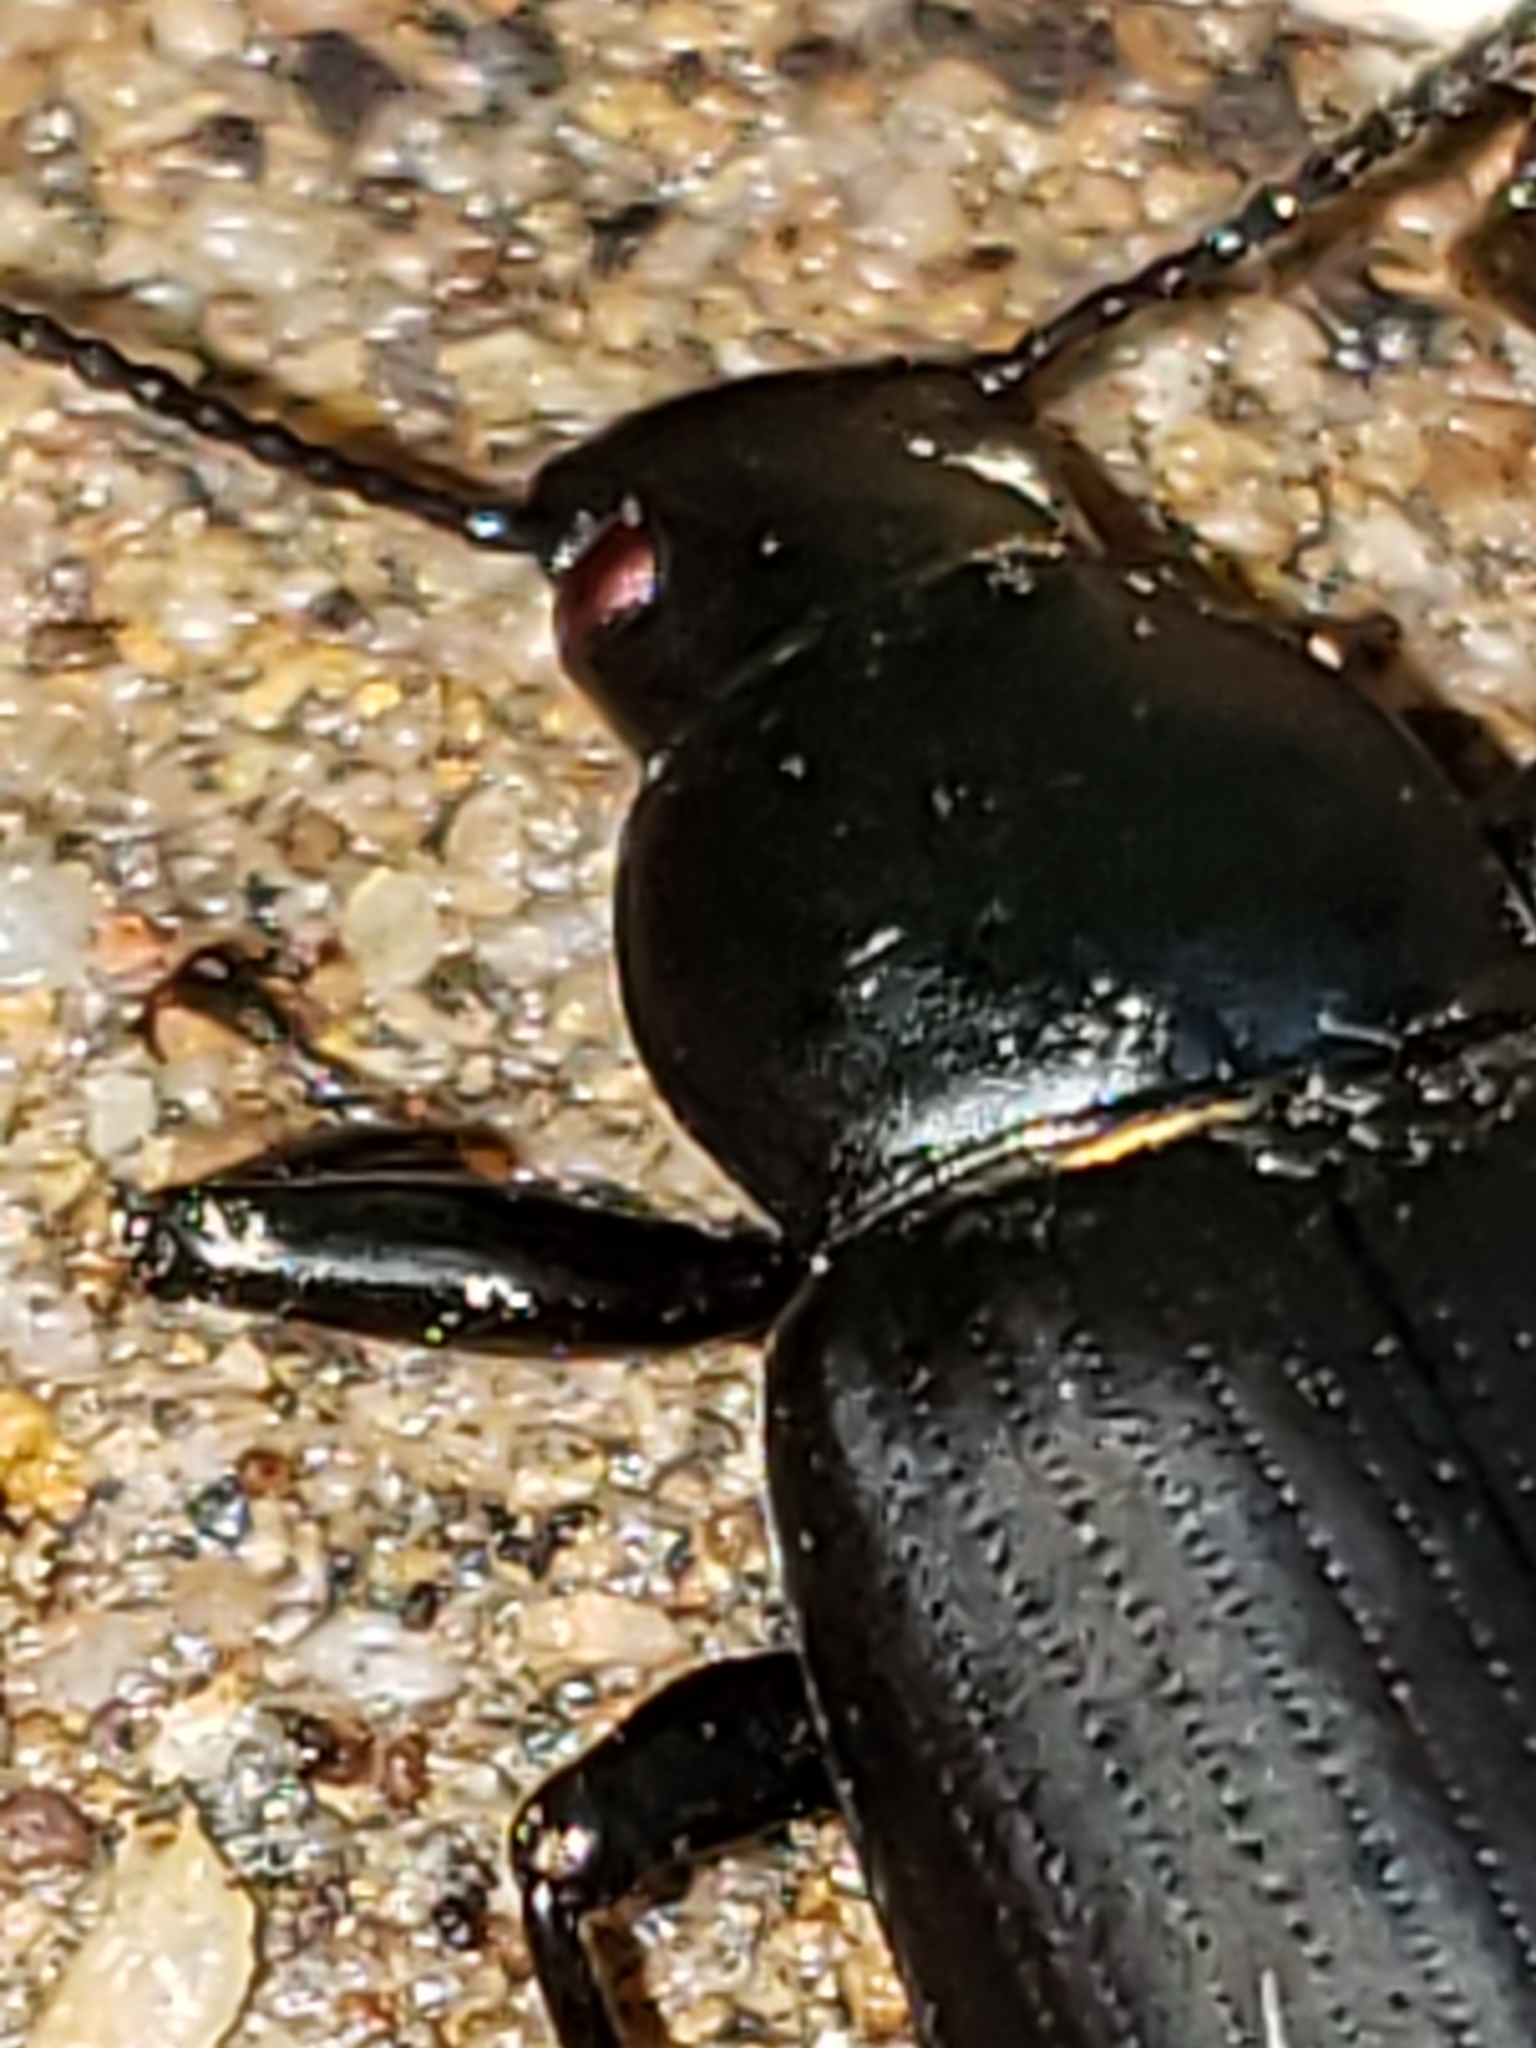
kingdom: Animalia
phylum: Arthropoda
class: Insecta
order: Coleoptera
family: Tenebrionidae
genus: Alobates
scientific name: Alobates
